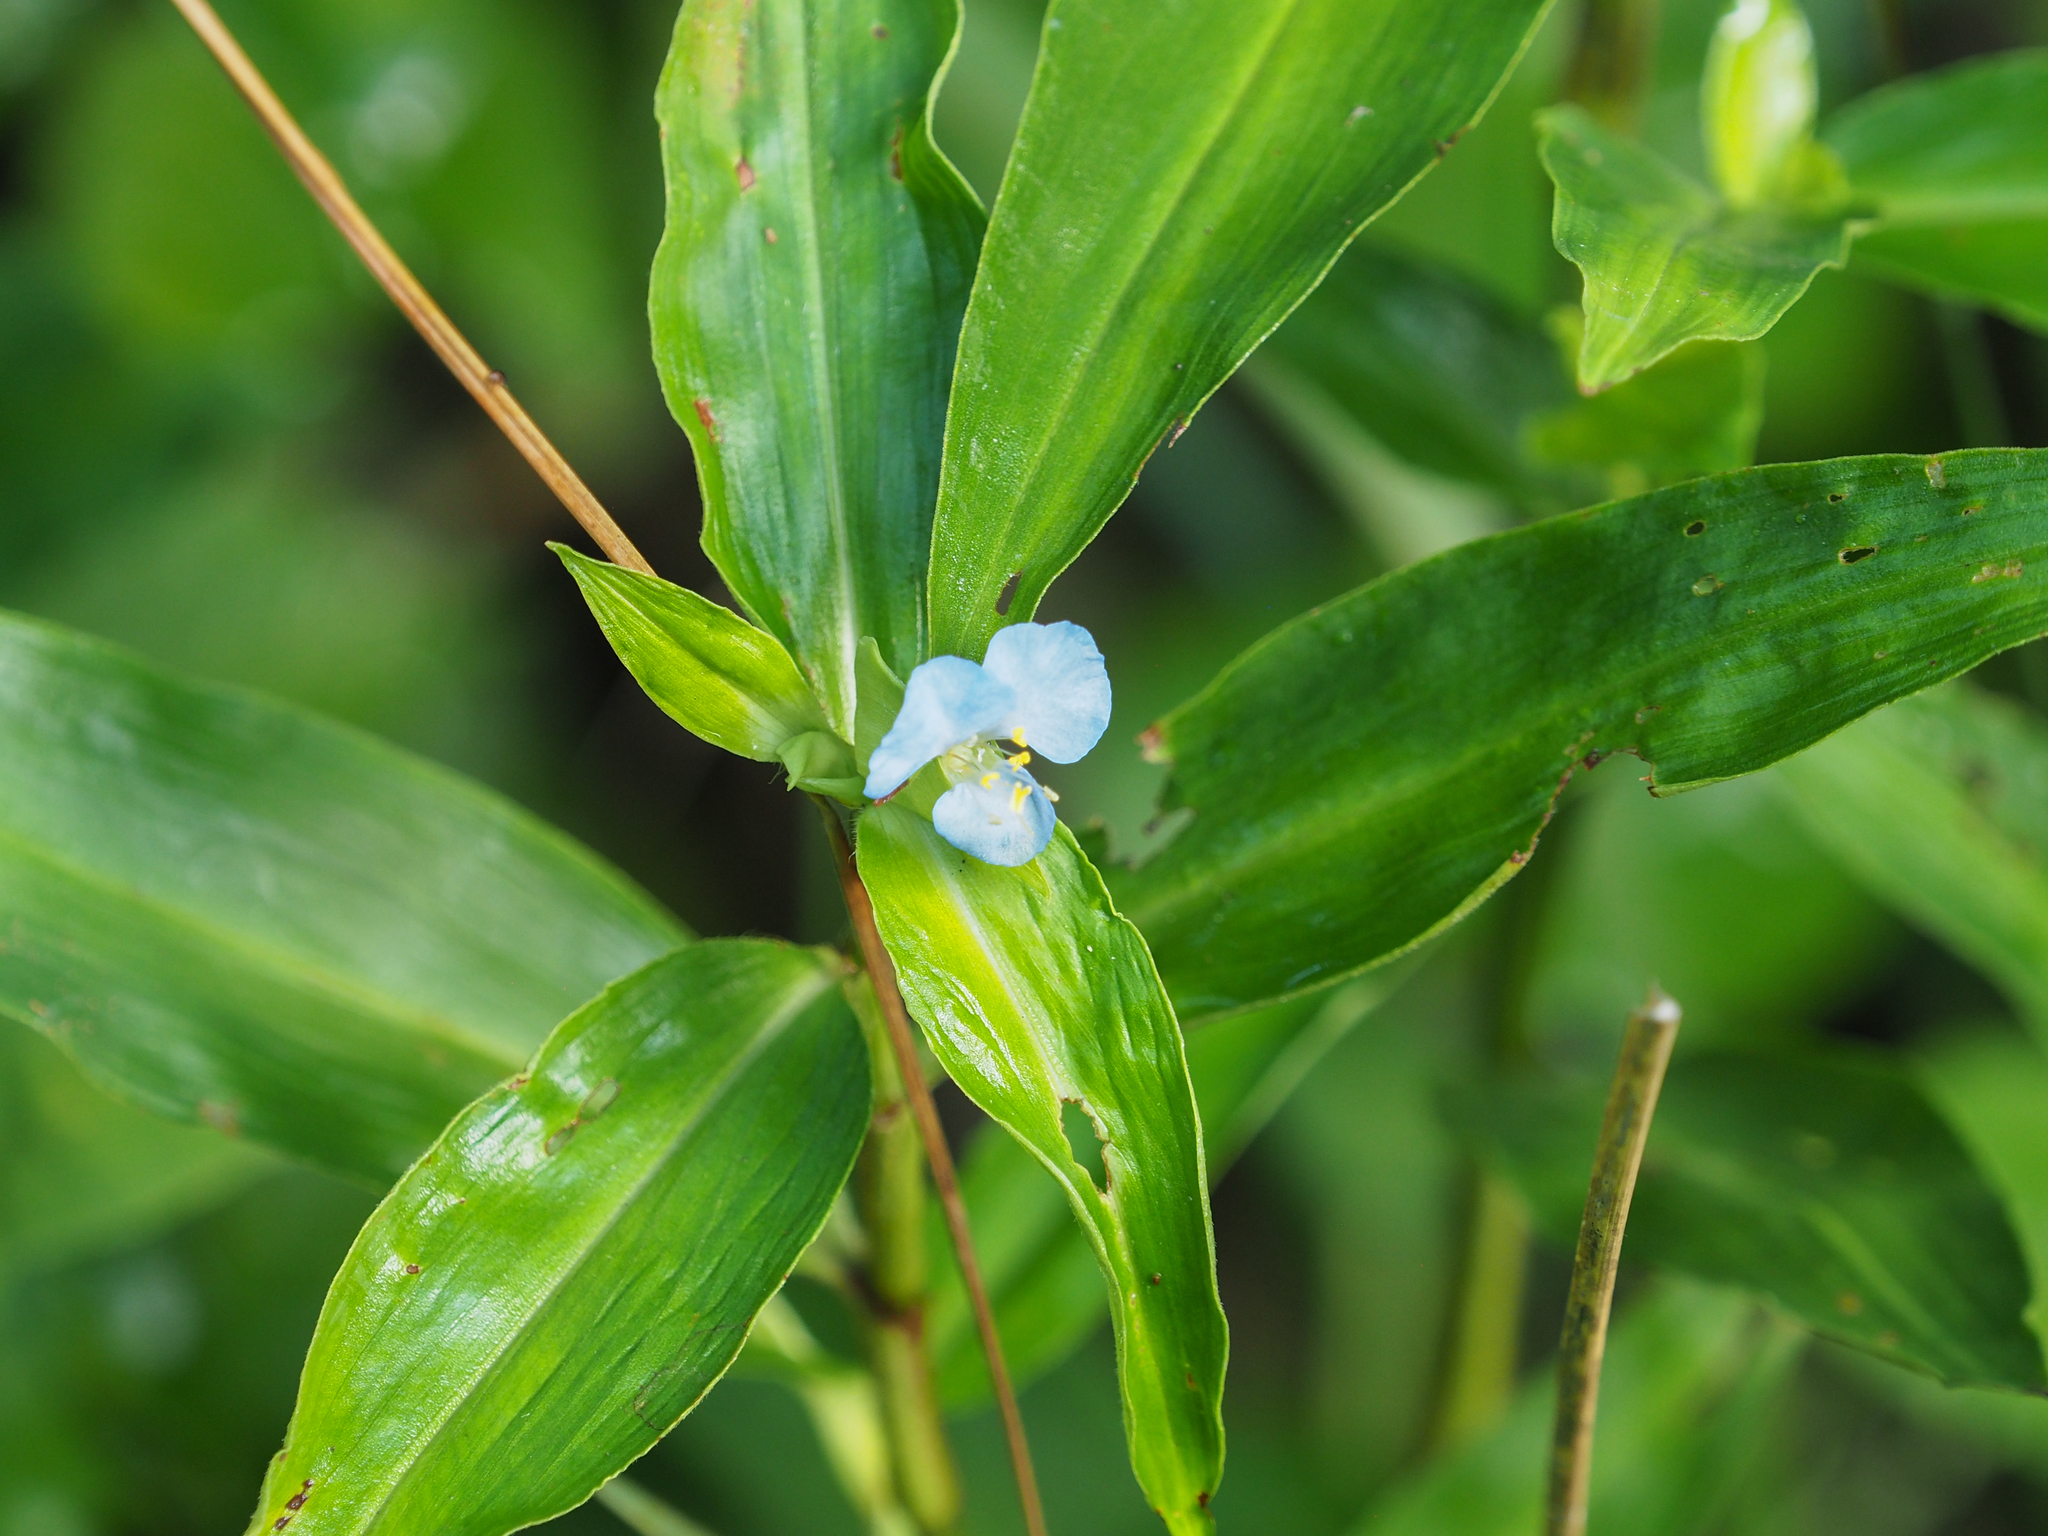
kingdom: Plantae
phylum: Tracheophyta
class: Liliopsida
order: Commelinales
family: Commelinaceae
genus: Commelina
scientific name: Commelina virginica
